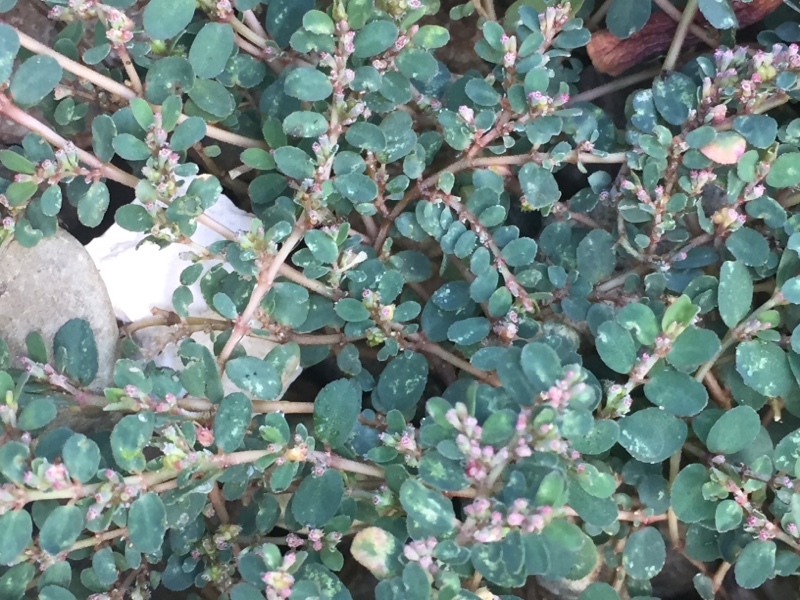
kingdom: Plantae
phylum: Tracheophyta
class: Magnoliopsida
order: Malpighiales
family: Euphorbiaceae
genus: Euphorbia
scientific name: Euphorbia prostrata
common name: Prostrate sandmat
